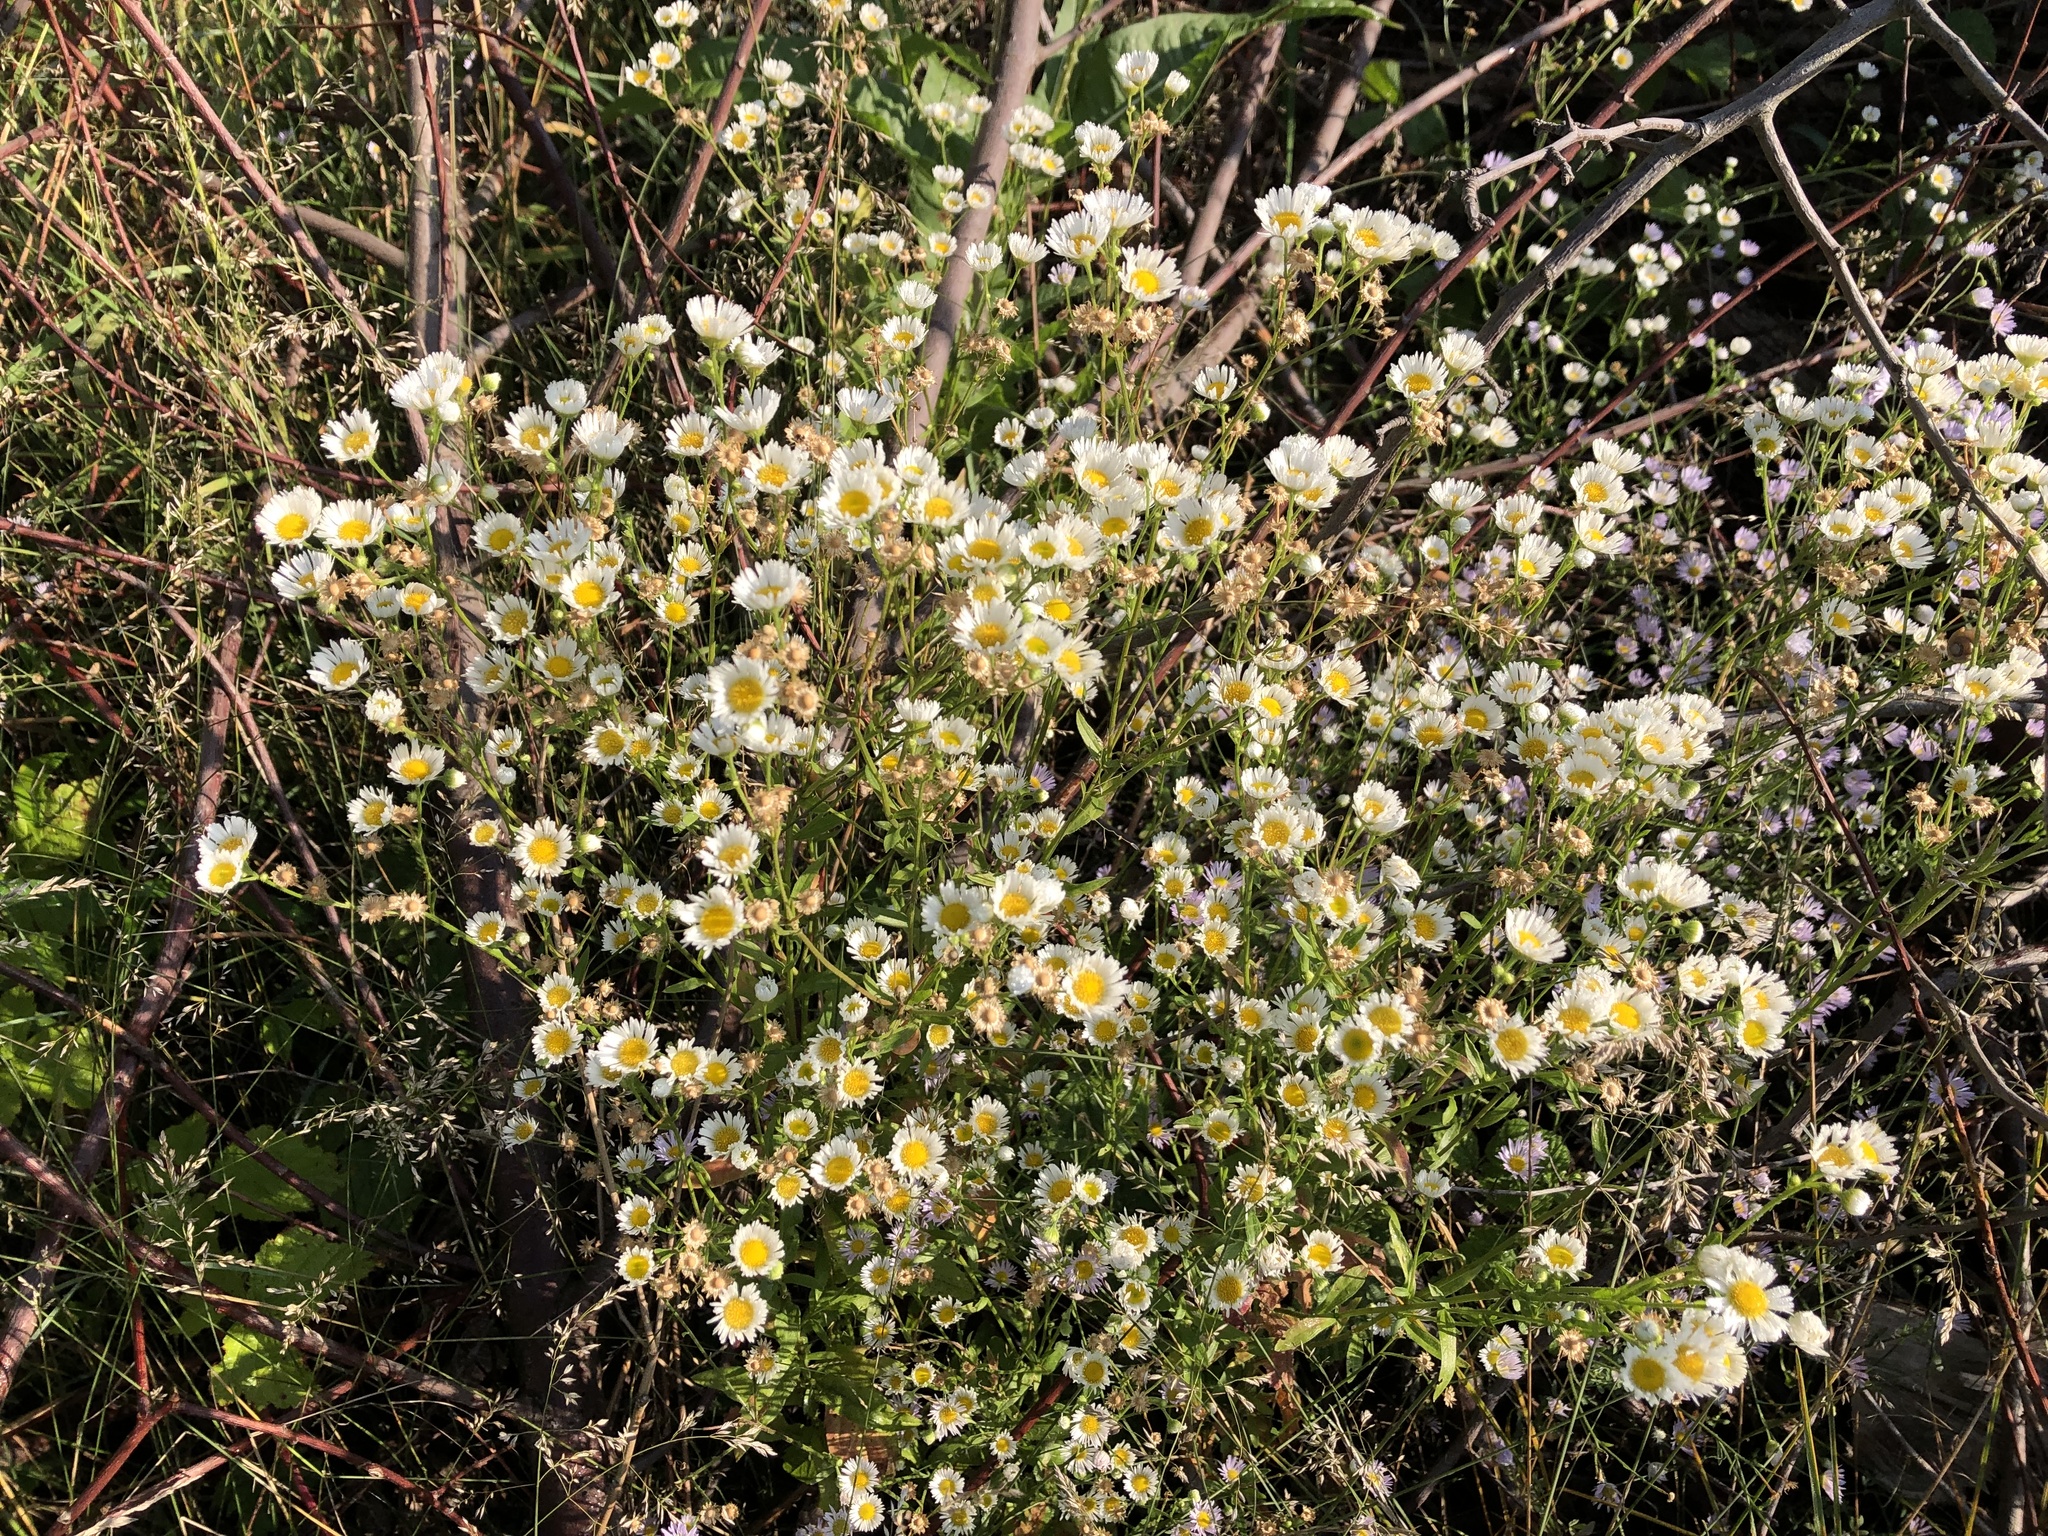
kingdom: Plantae
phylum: Tracheophyta
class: Magnoliopsida
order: Asterales
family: Asteraceae
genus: Erigeron
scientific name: Erigeron annuus
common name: Tall fleabane
